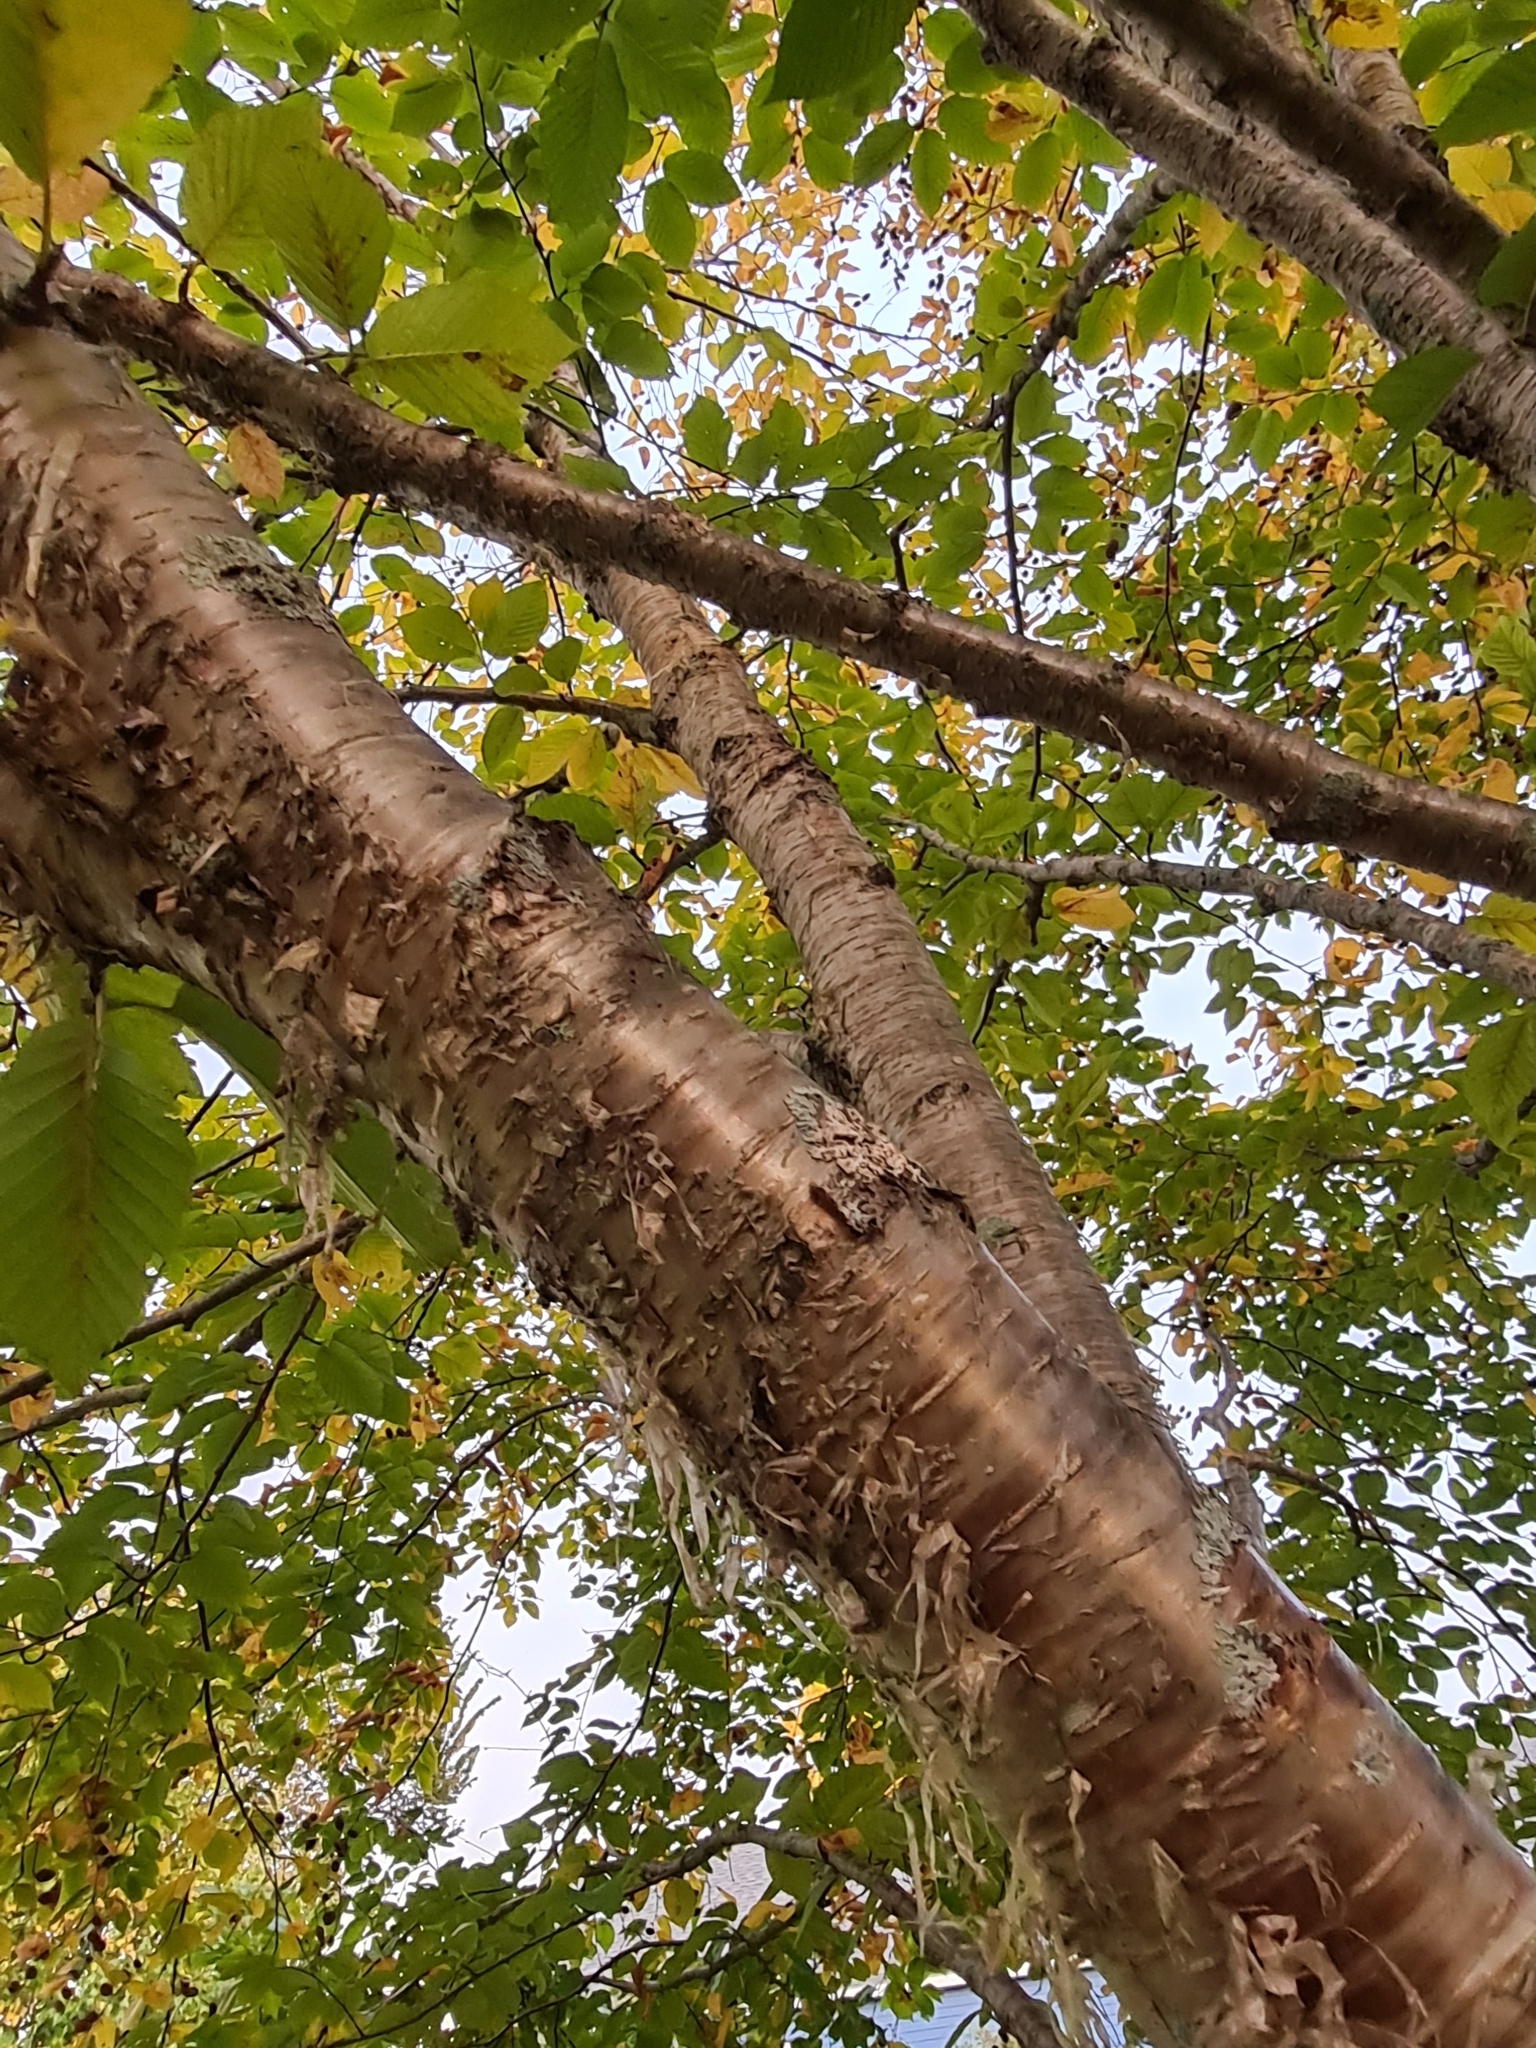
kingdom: Plantae
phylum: Tracheophyta
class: Magnoliopsida
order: Fagales
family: Betulaceae
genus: Betula
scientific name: Betula alleghaniensis
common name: Yellow birch
